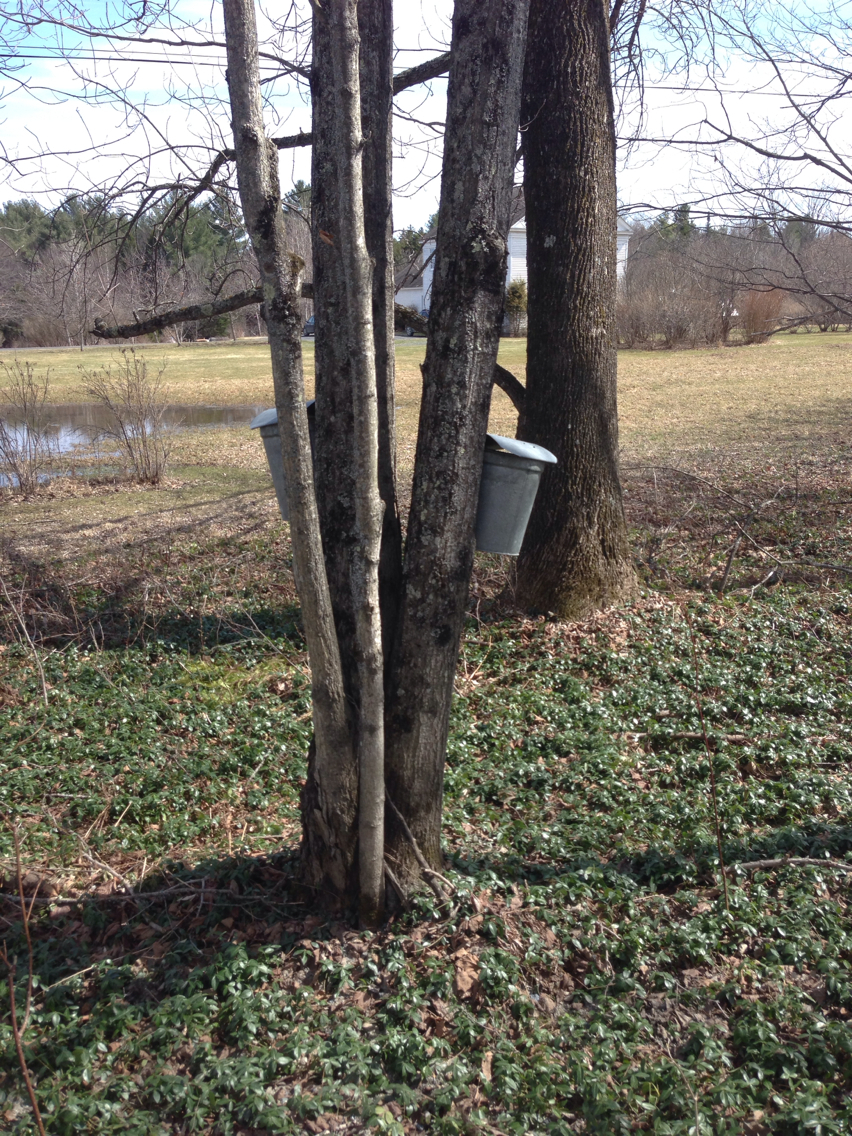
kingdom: Plantae
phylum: Tracheophyta
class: Magnoliopsida
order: Sapindales
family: Sapindaceae
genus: Acer
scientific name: Acer saccharum
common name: Sugar maple
